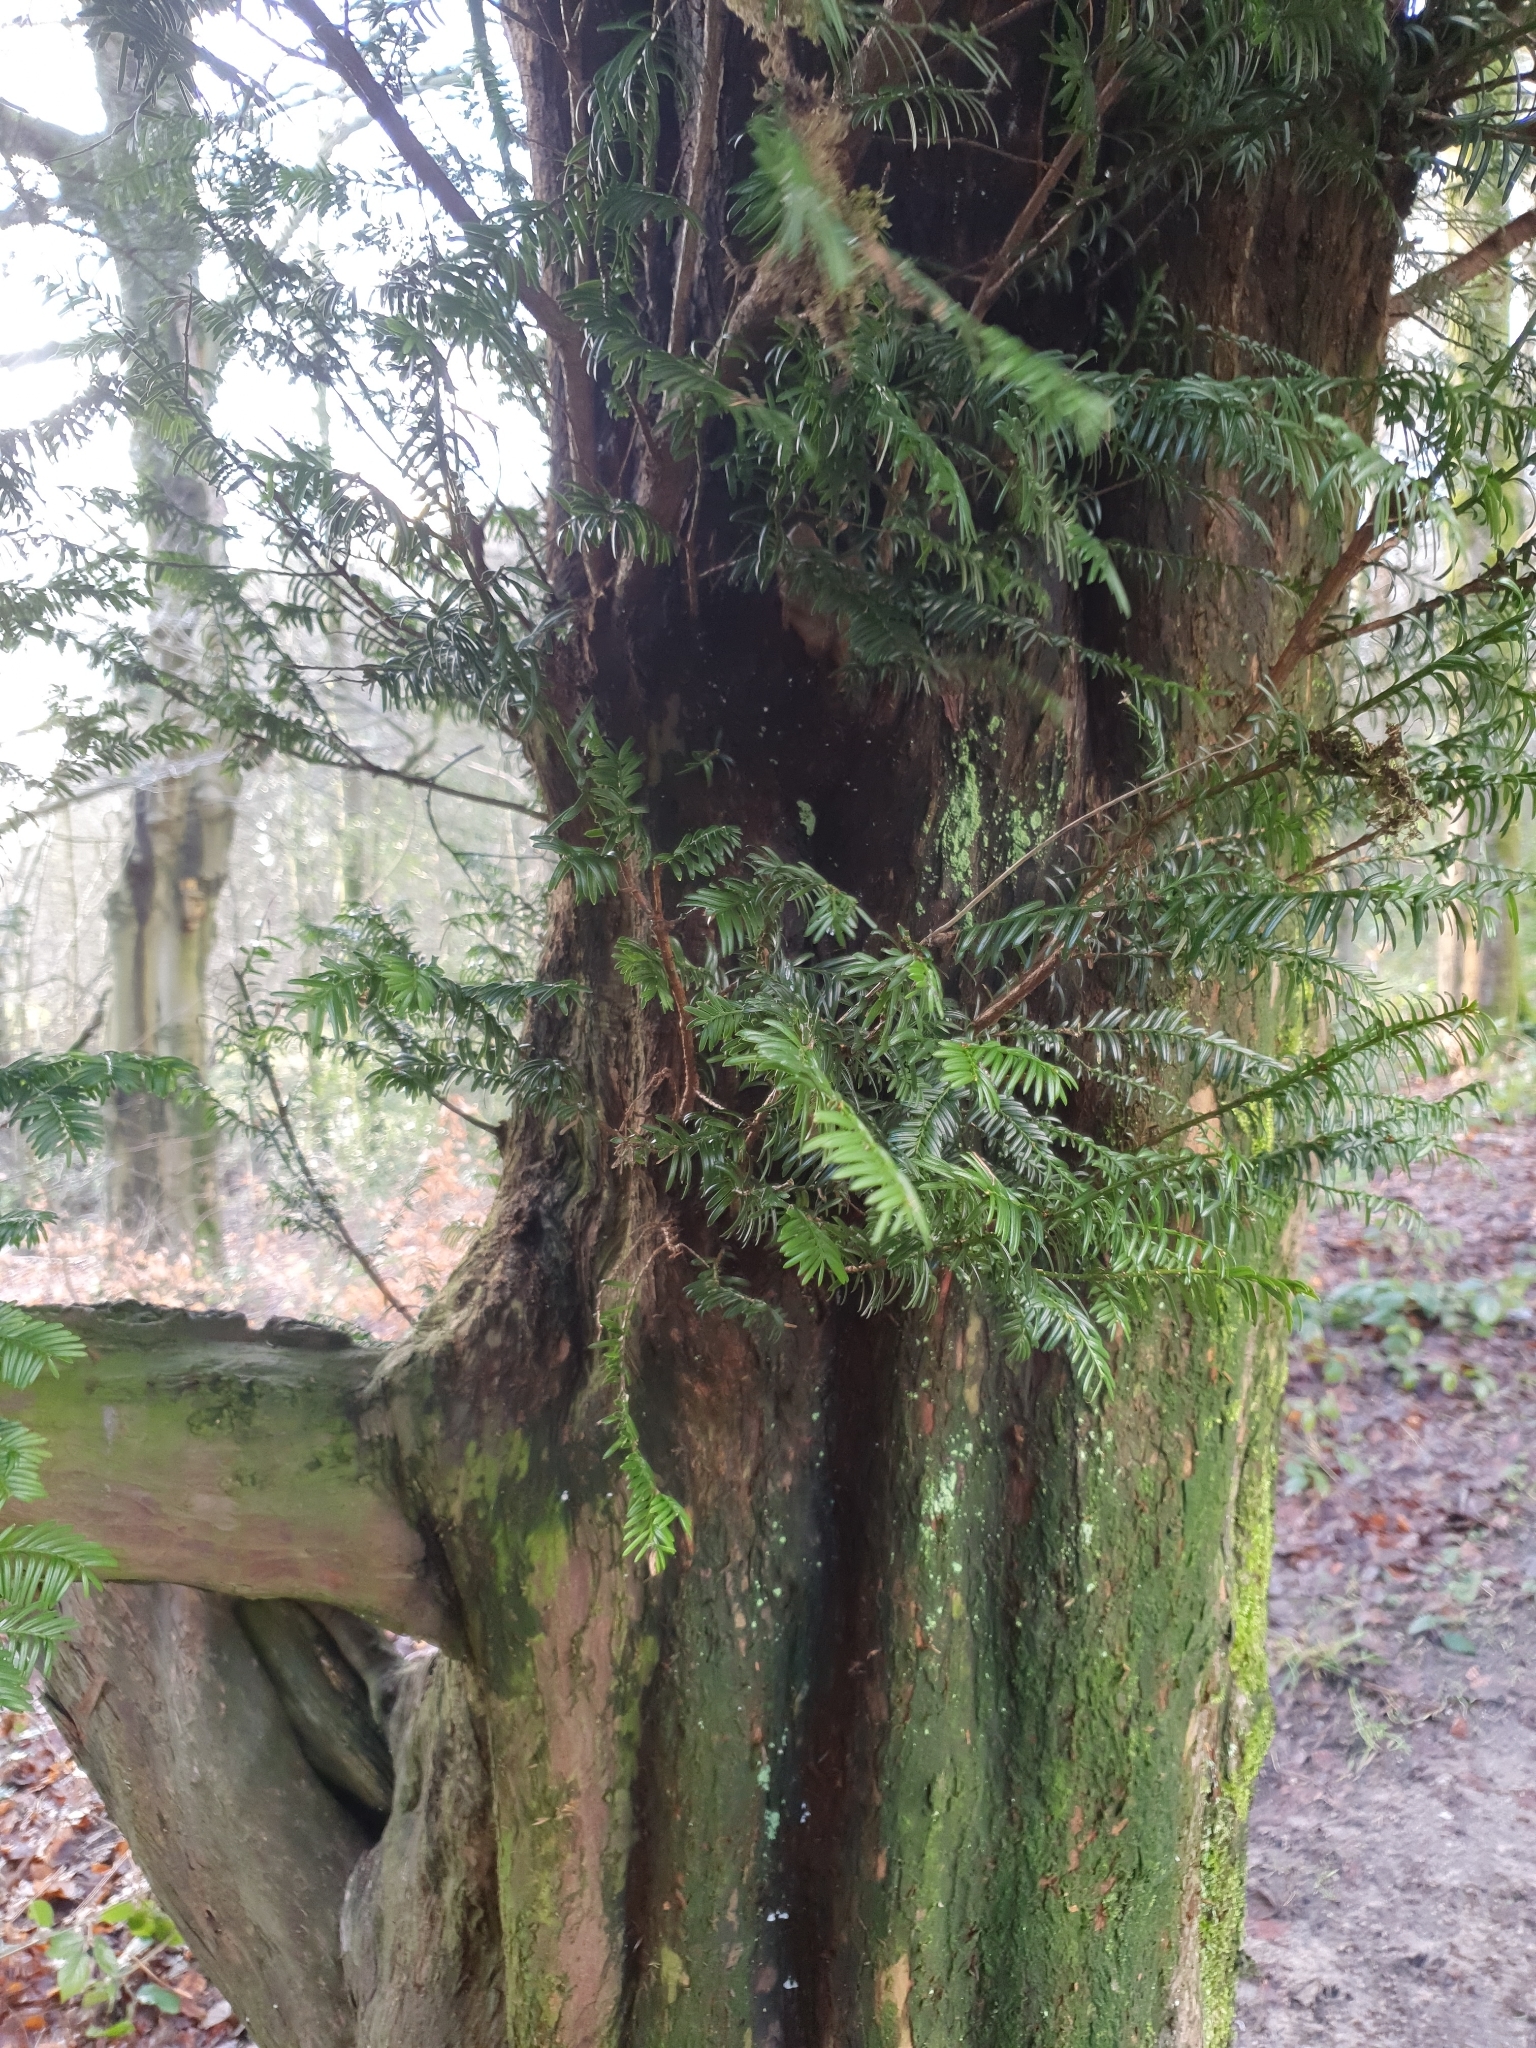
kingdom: Plantae
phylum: Tracheophyta
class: Pinopsida
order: Pinales
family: Taxaceae
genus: Taxus
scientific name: Taxus baccata
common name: Yew
